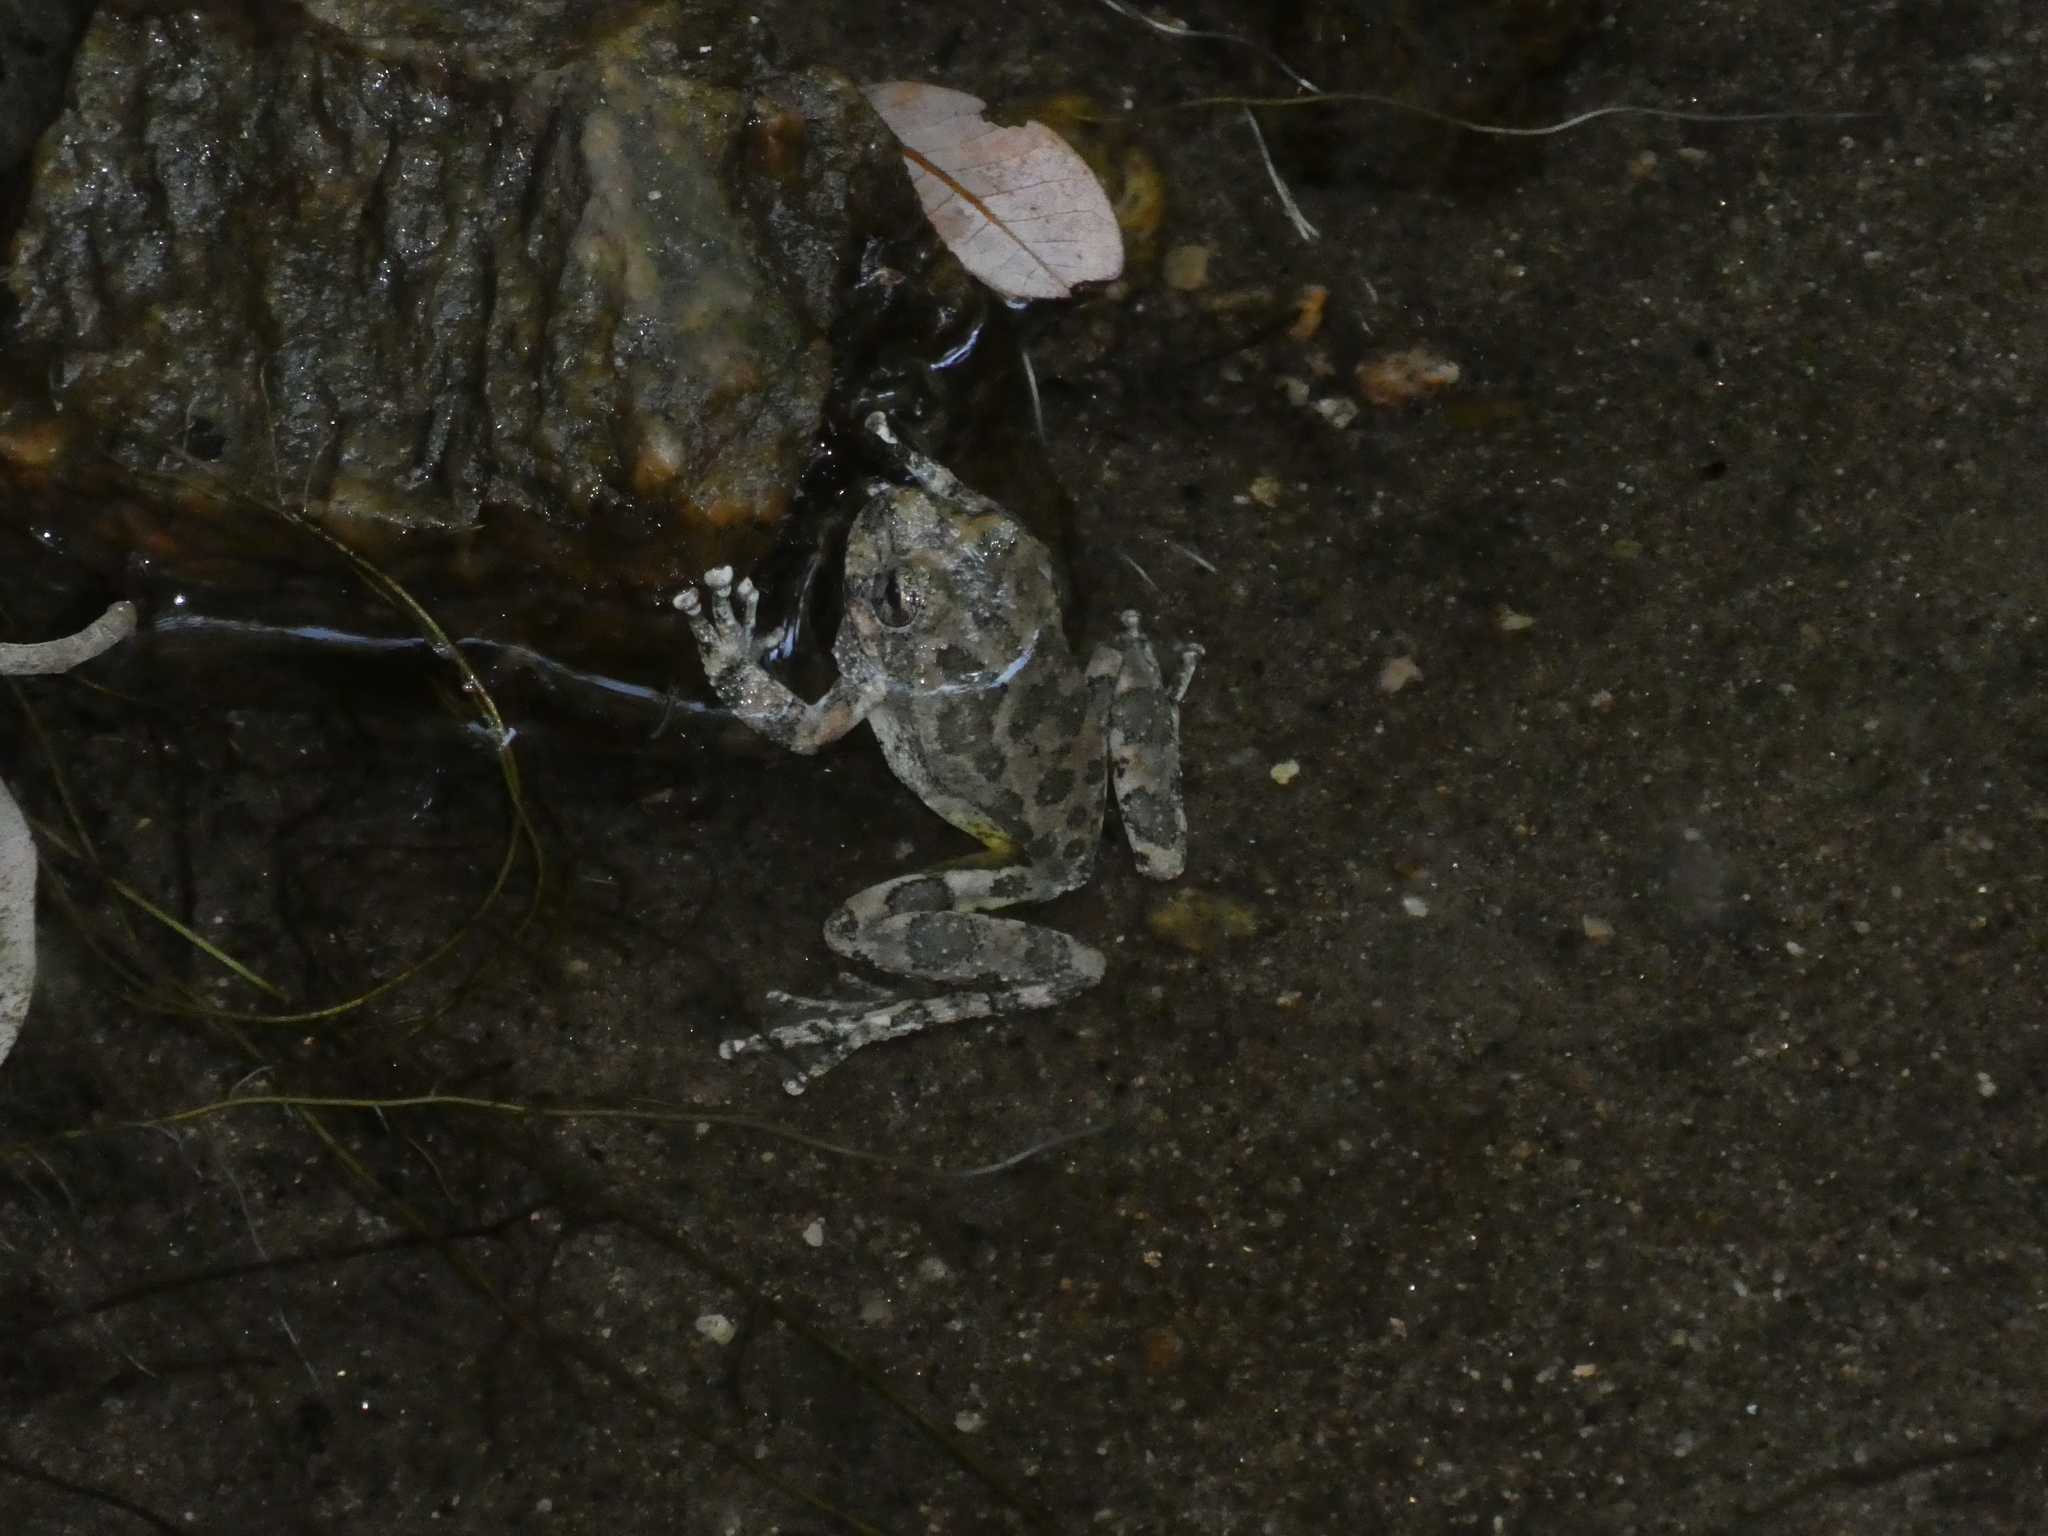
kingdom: Animalia
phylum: Chordata
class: Amphibia
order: Anura
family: Hylidae
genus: Pseudacris
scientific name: Pseudacris cadaverina
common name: California chorus frog
